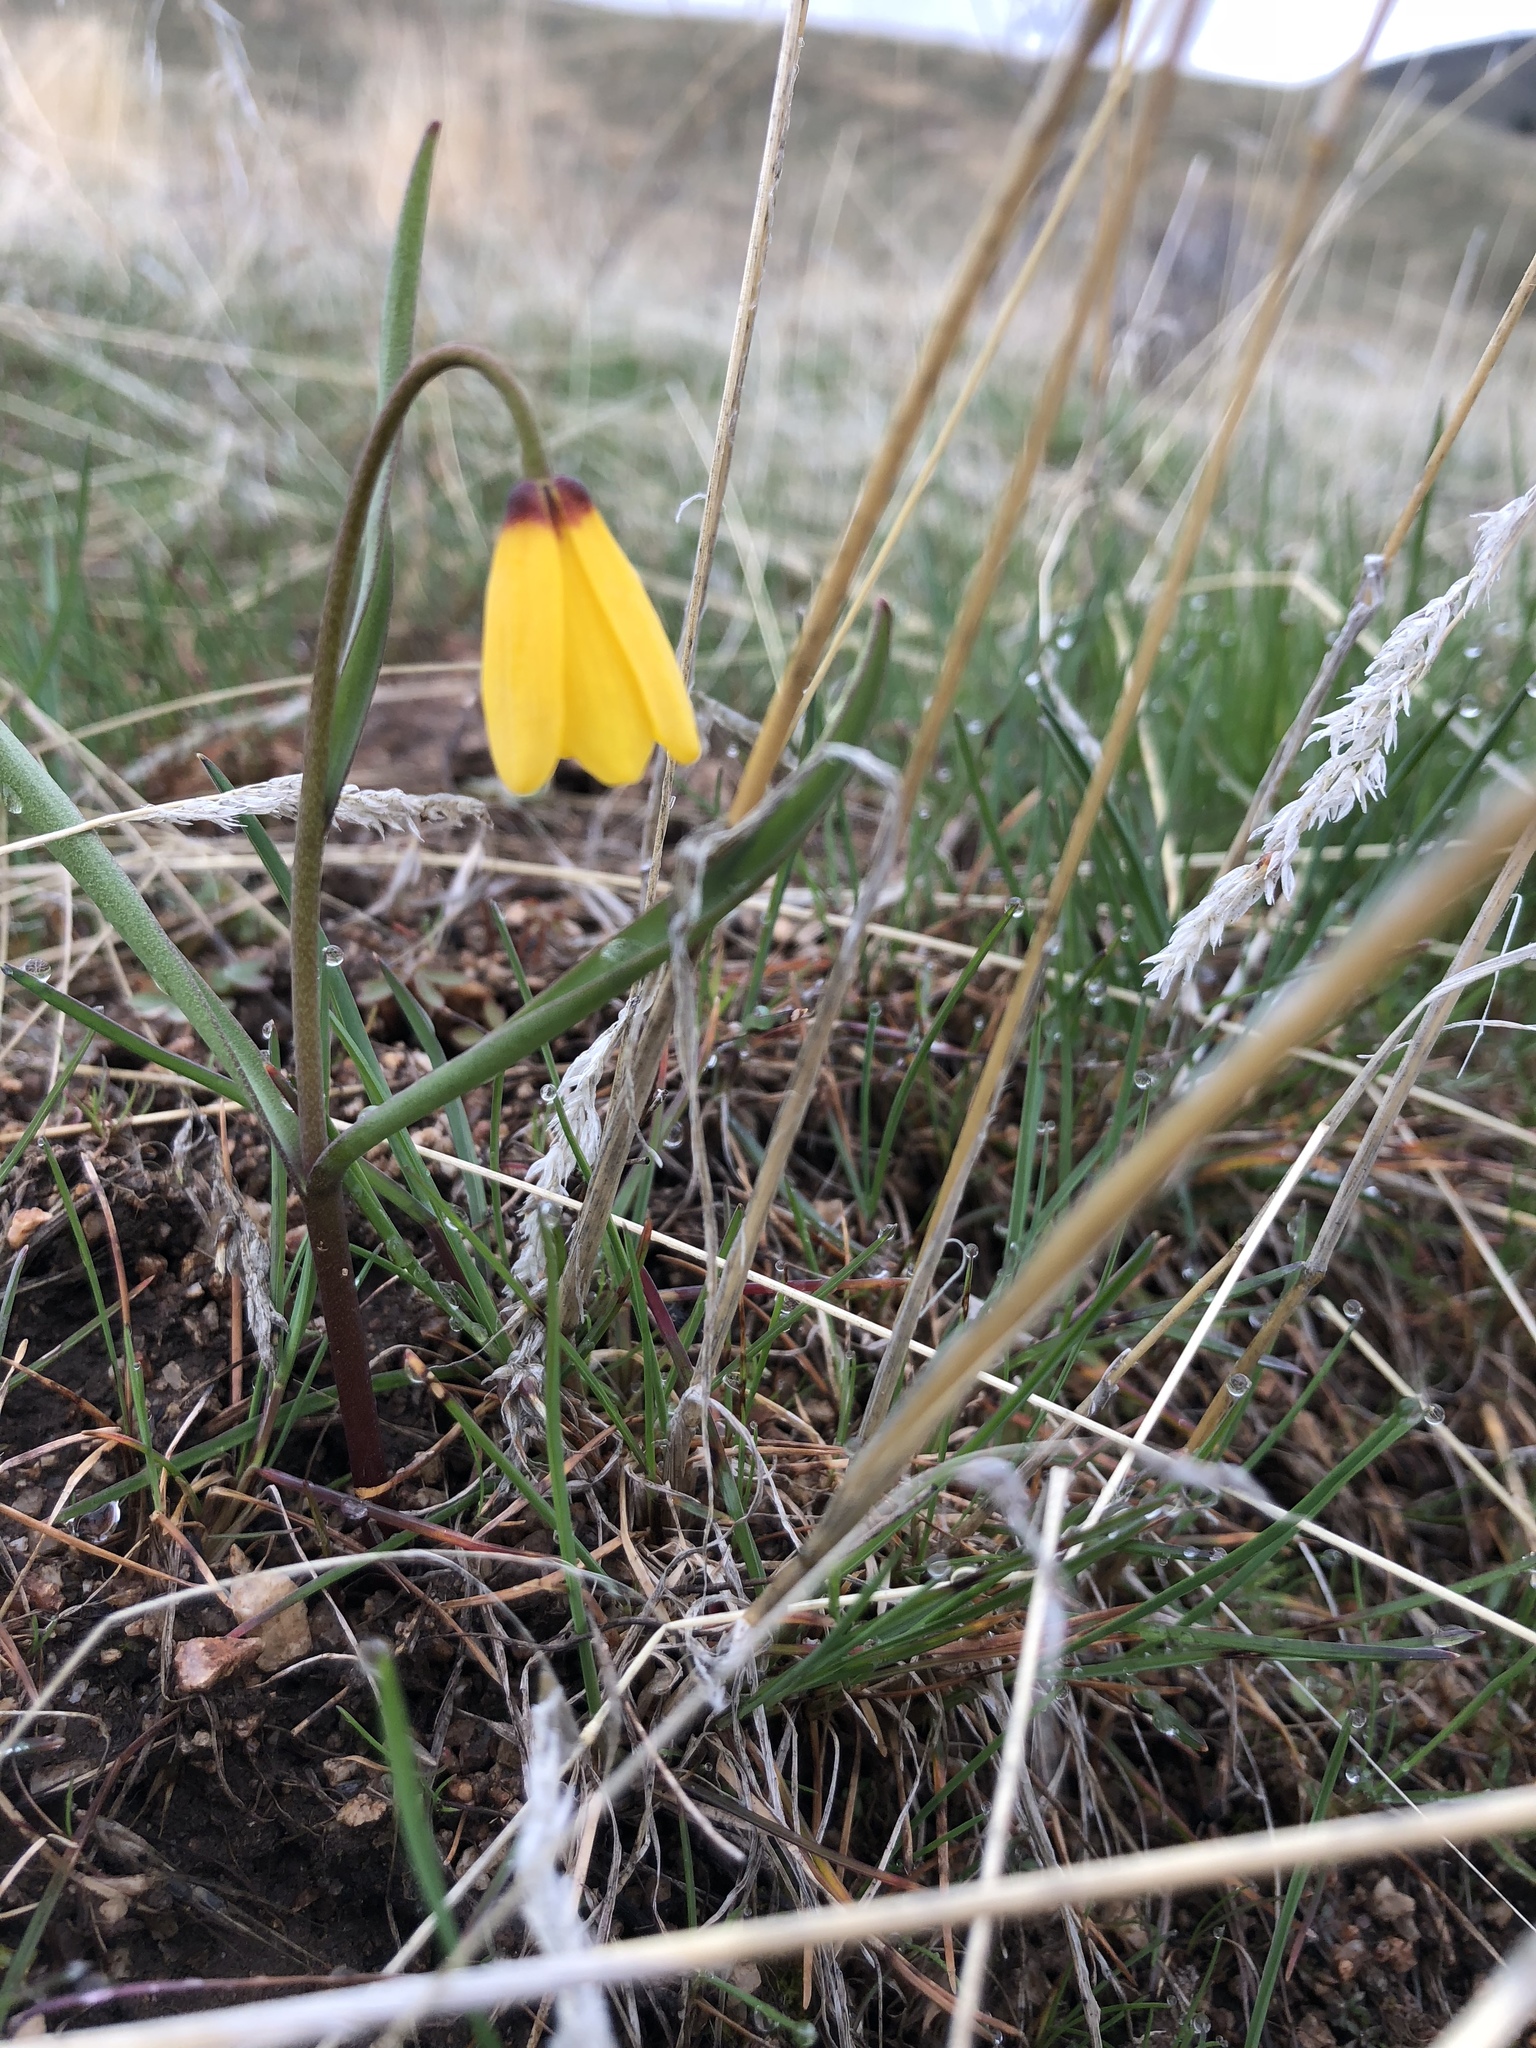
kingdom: Plantae
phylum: Tracheophyta
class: Liliopsida
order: Liliales
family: Liliaceae
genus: Fritillaria
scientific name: Fritillaria pudica
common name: Yellow fritillary
